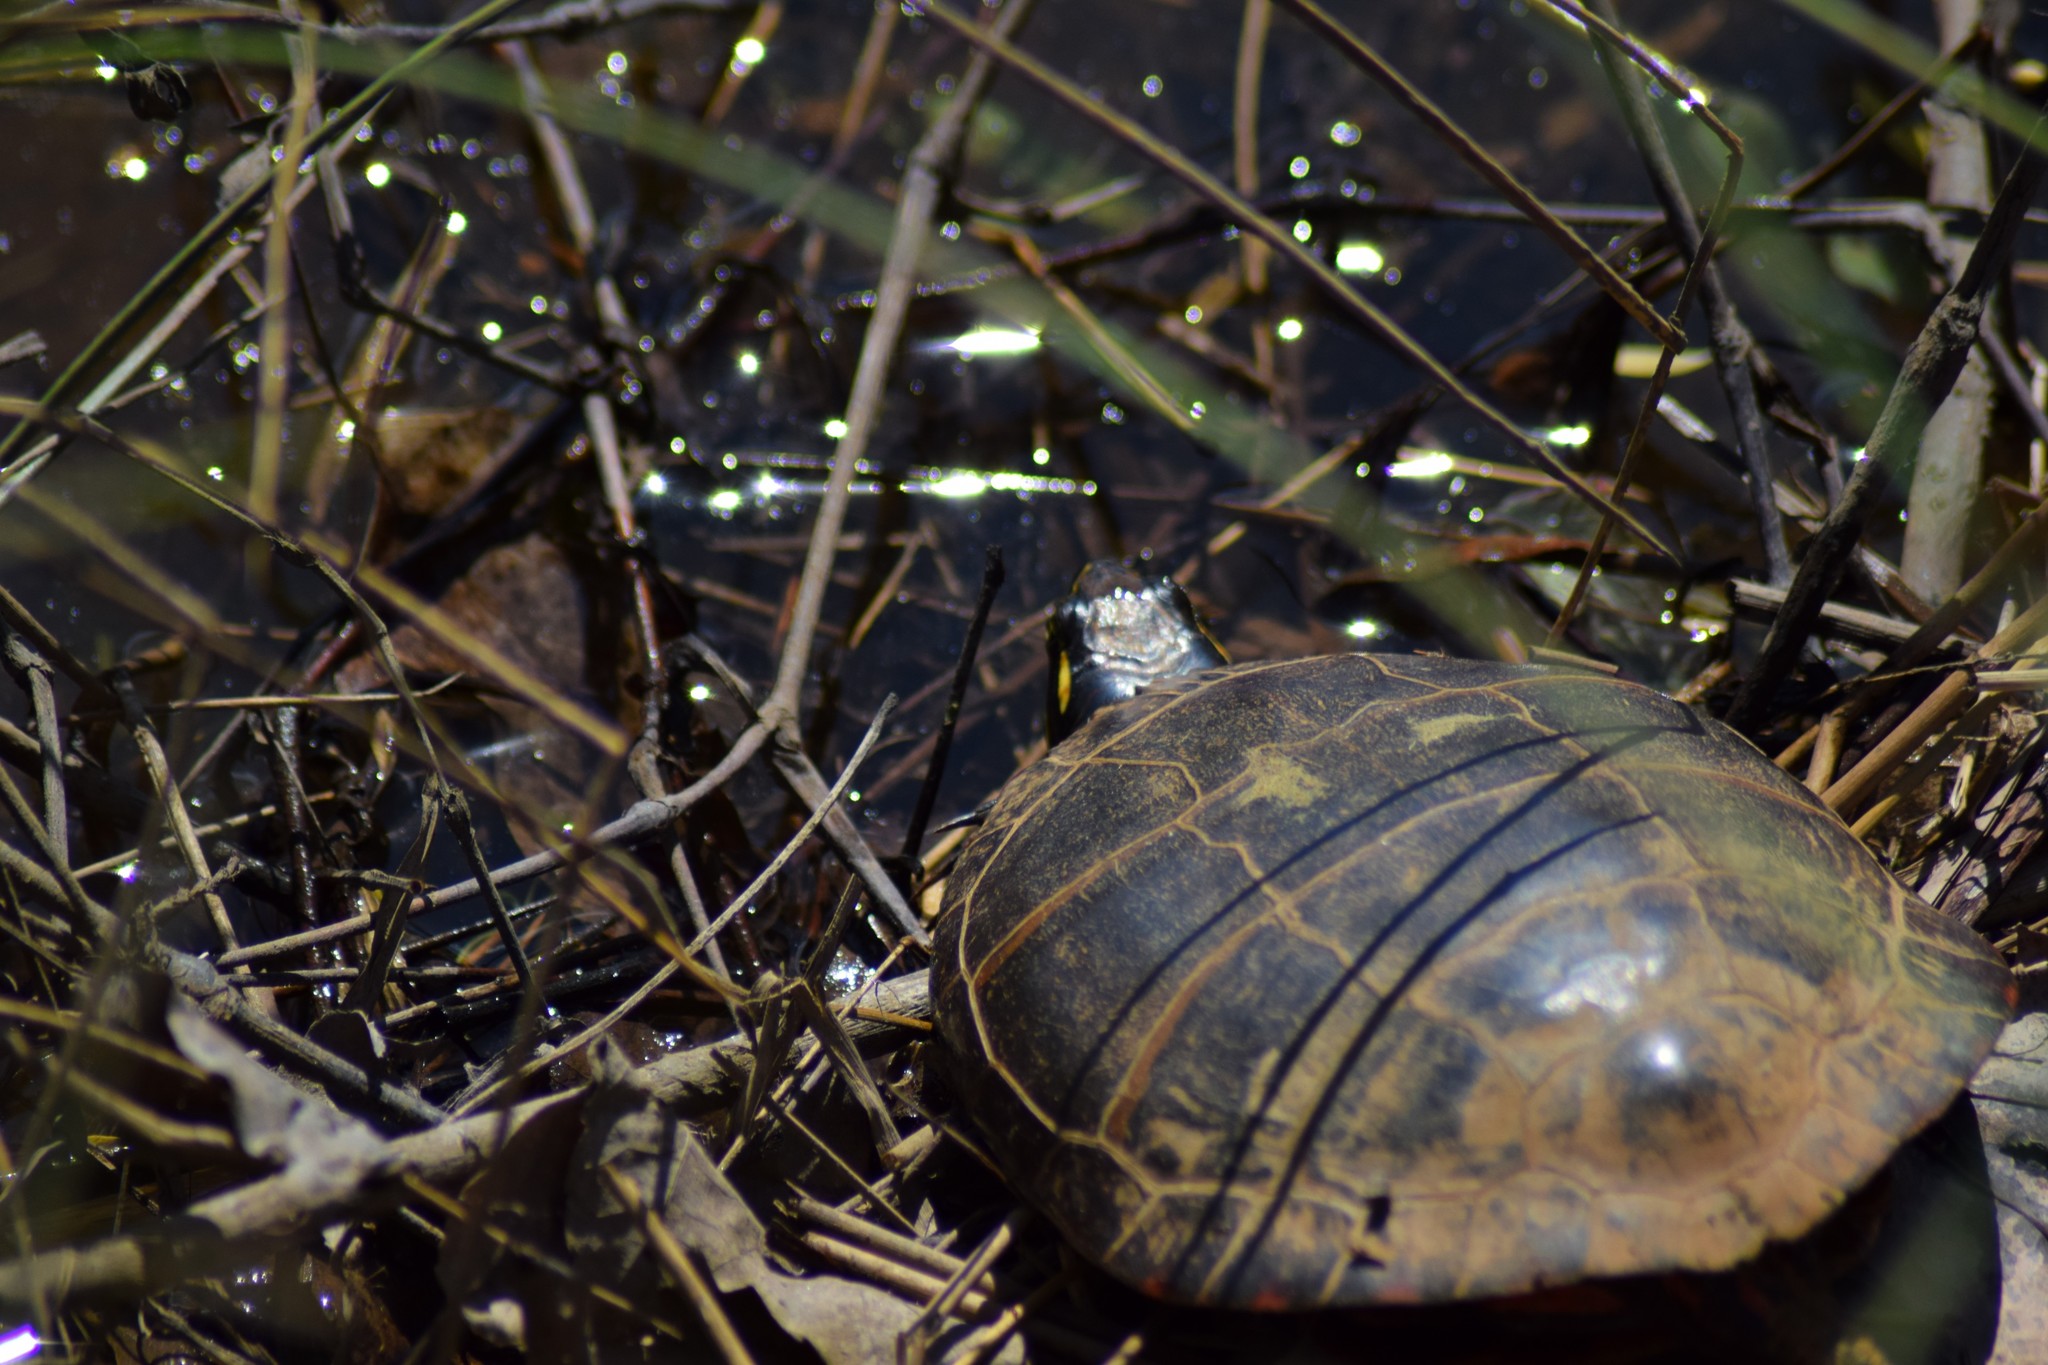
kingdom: Animalia
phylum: Chordata
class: Testudines
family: Emydidae
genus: Chrysemys
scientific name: Chrysemys picta
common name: Painted turtle
